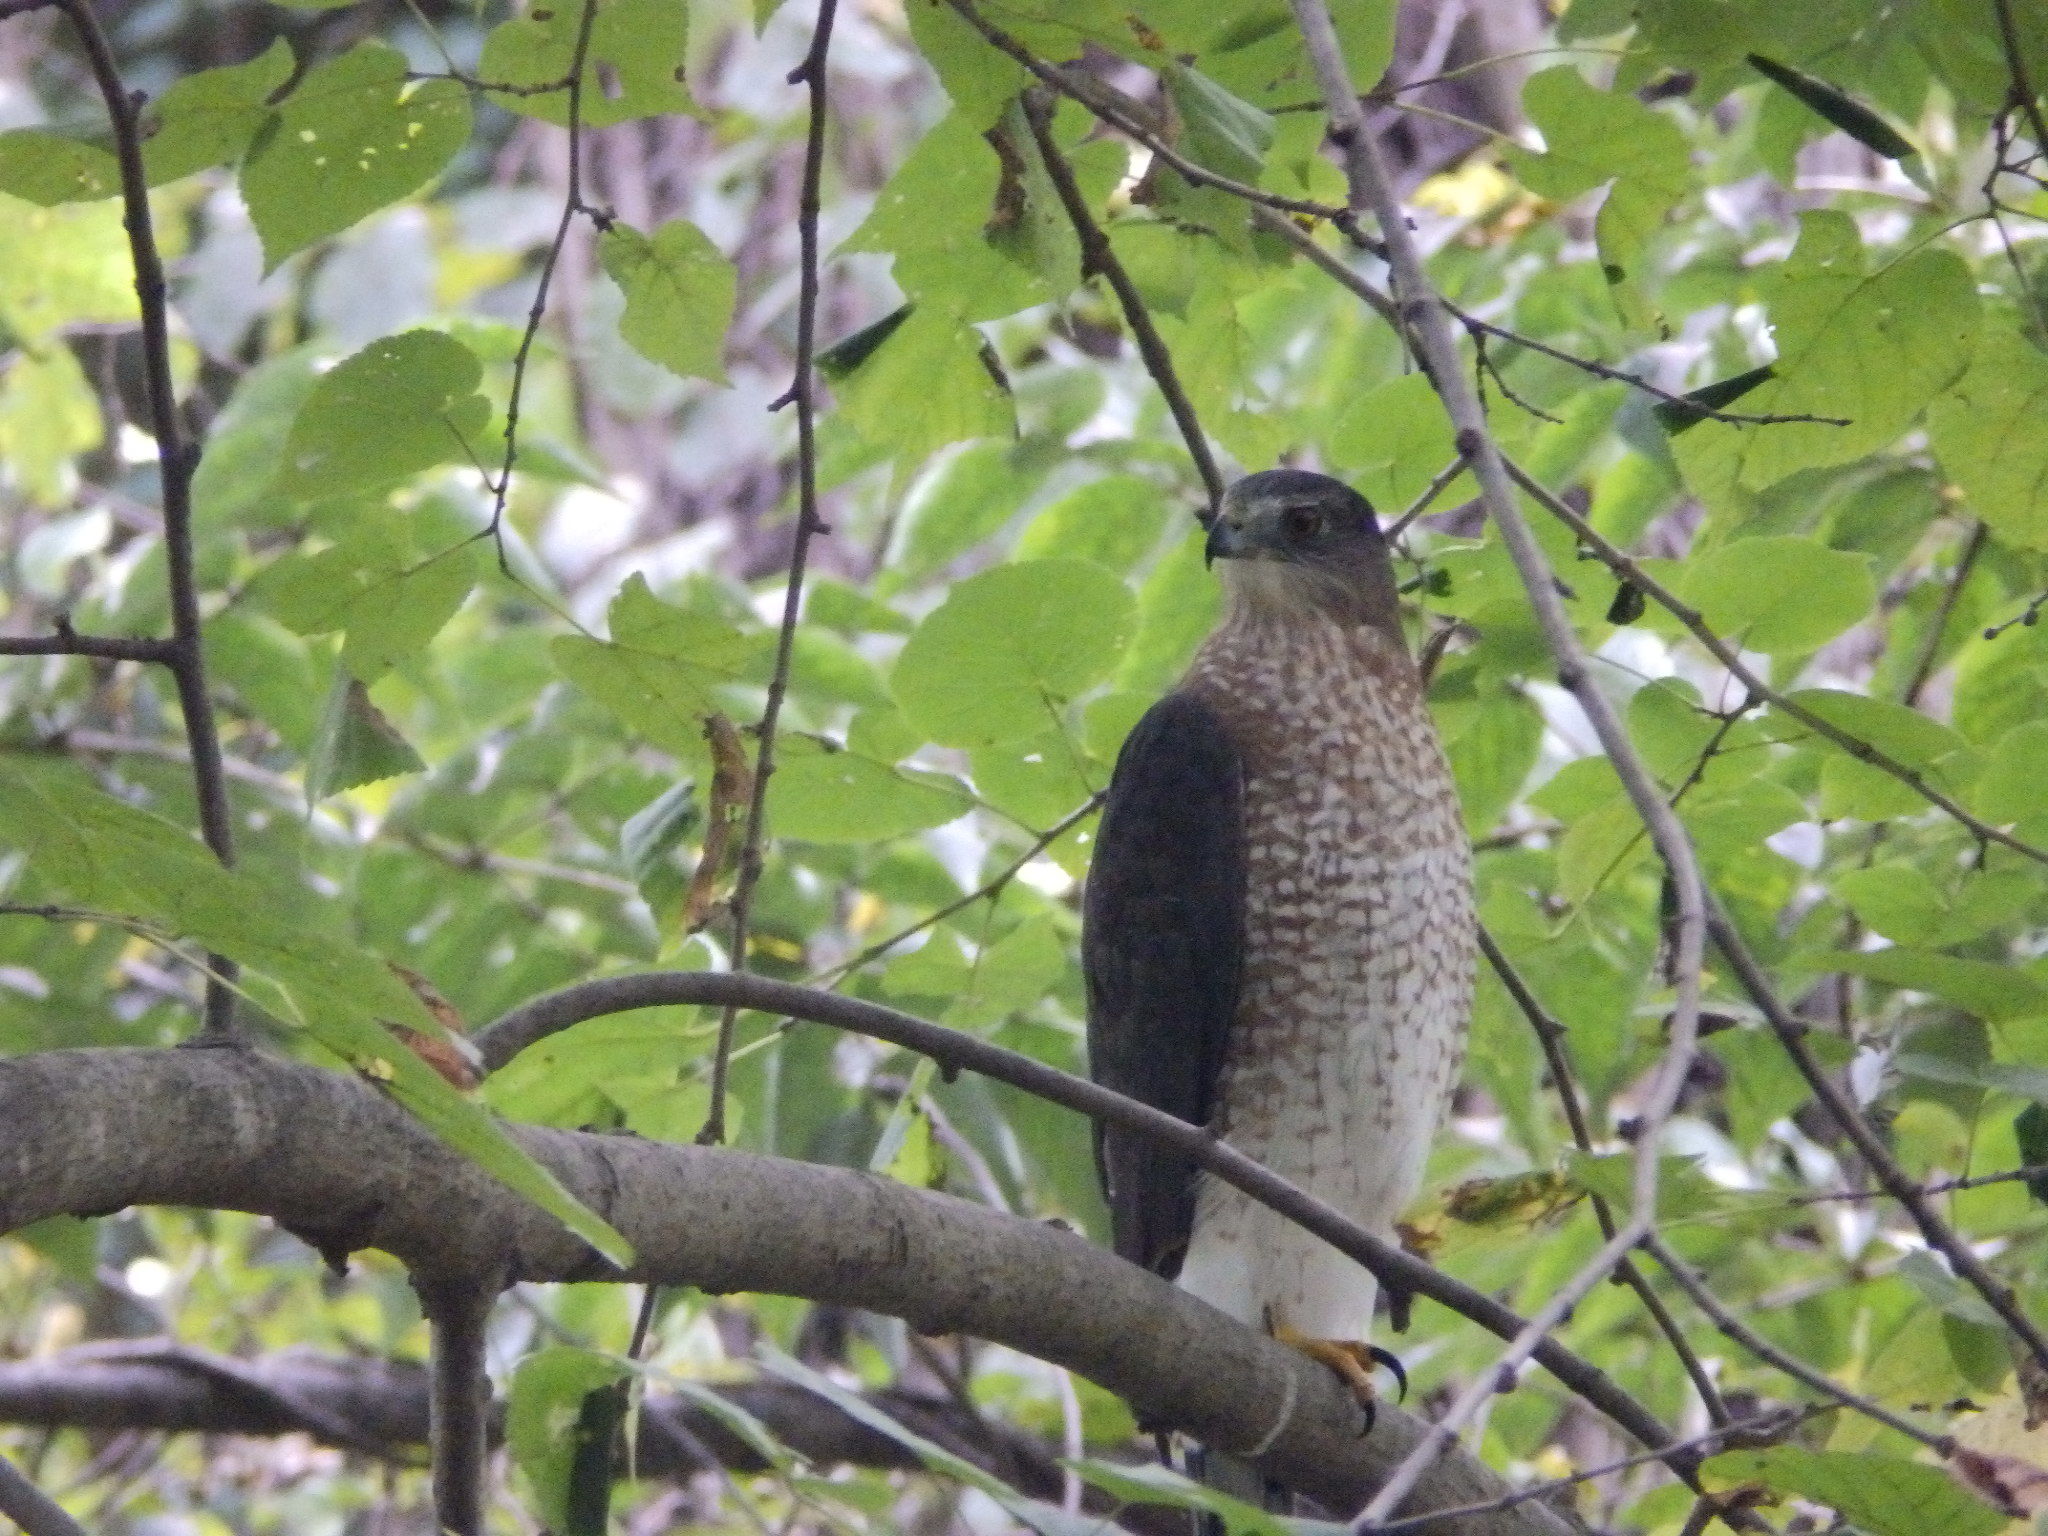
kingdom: Animalia
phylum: Chordata
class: Aves
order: Accipitriformes
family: Accipitridae
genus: Accipiter
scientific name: Accipiter cooperii
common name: Cooper's hawk
